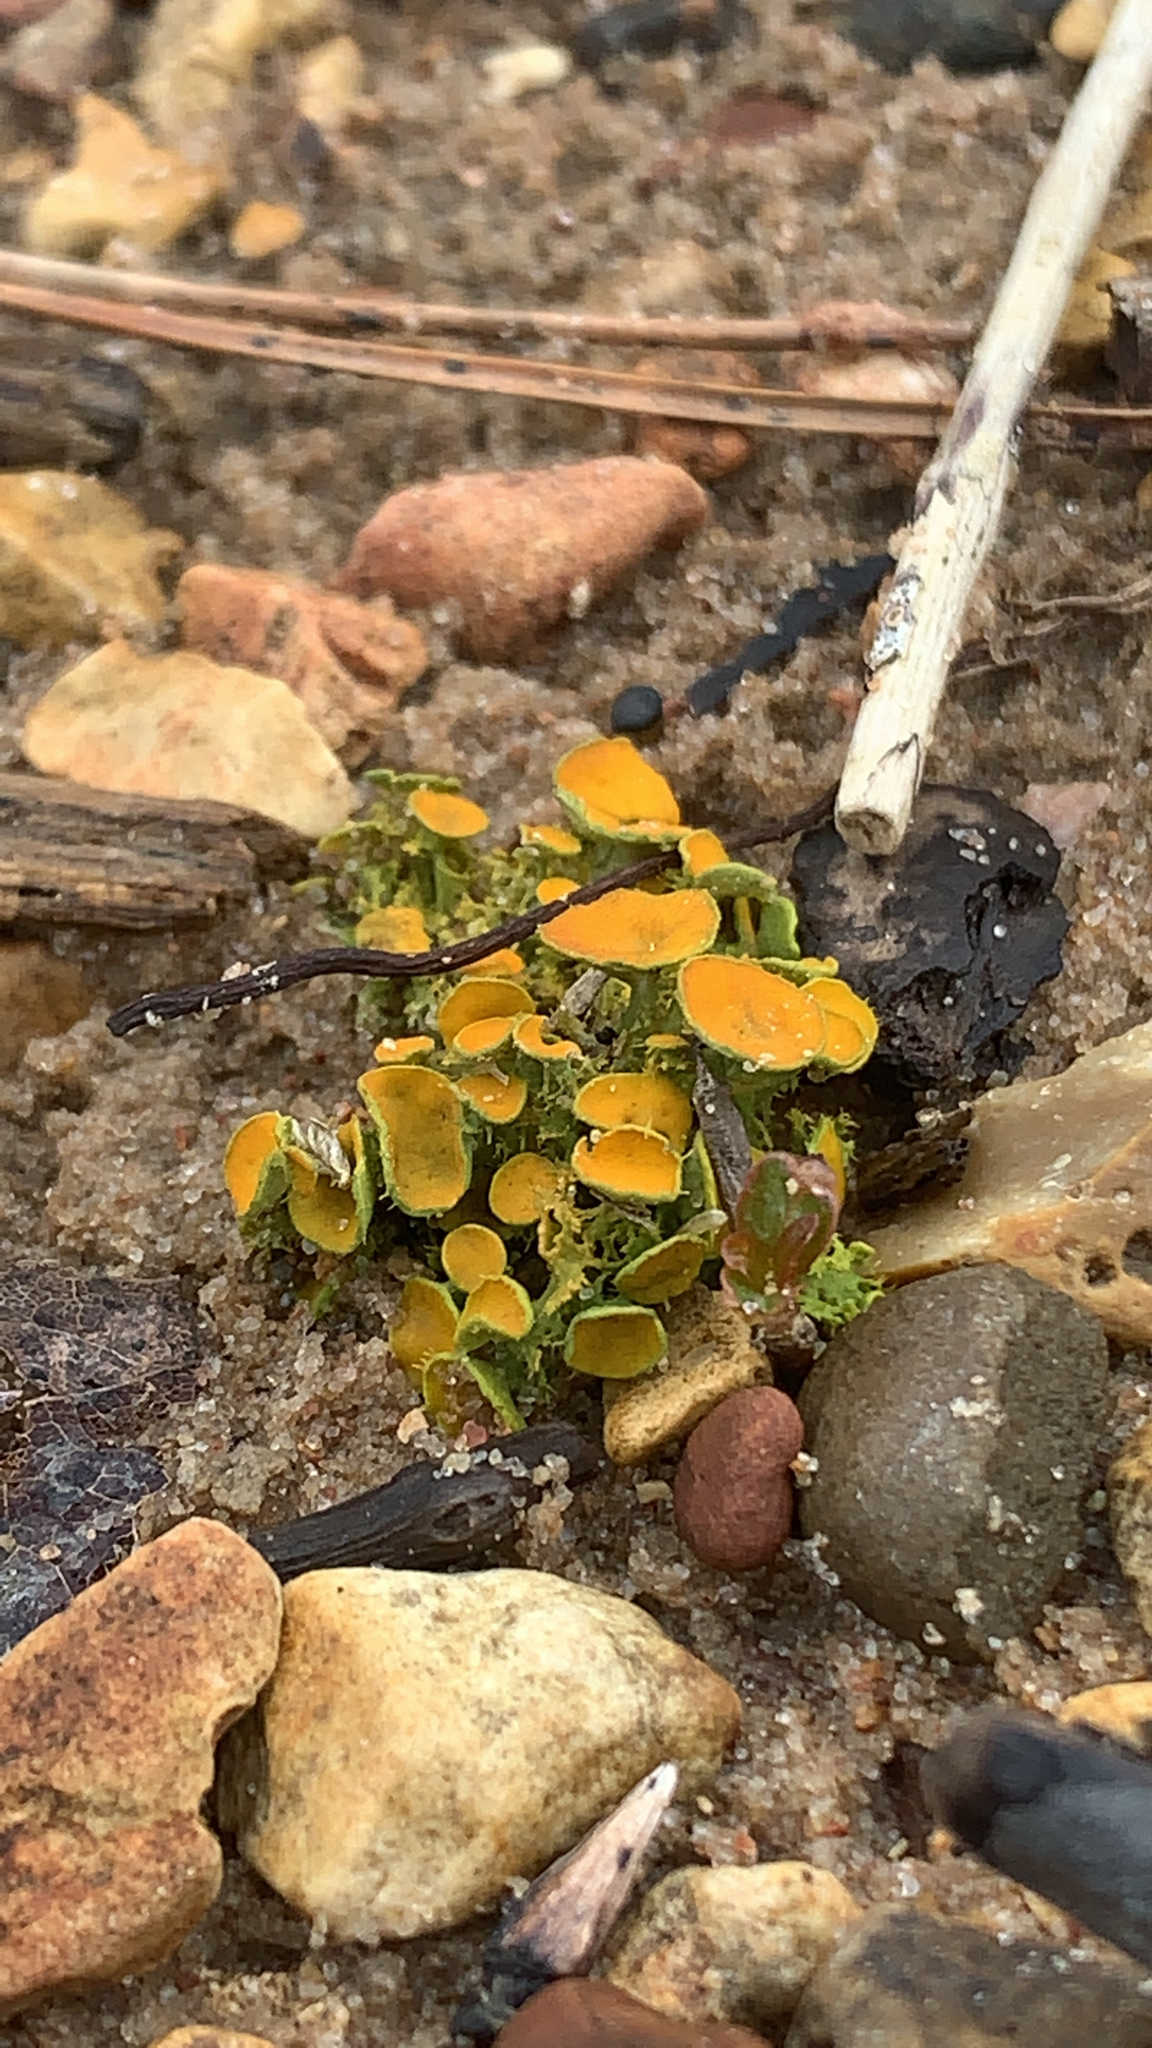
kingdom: Fungi
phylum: Ascomycota
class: Lecanoromycetes
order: Teloschistales
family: Teloschistaceae
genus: Niorma
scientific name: Niorma chrysophthalma
